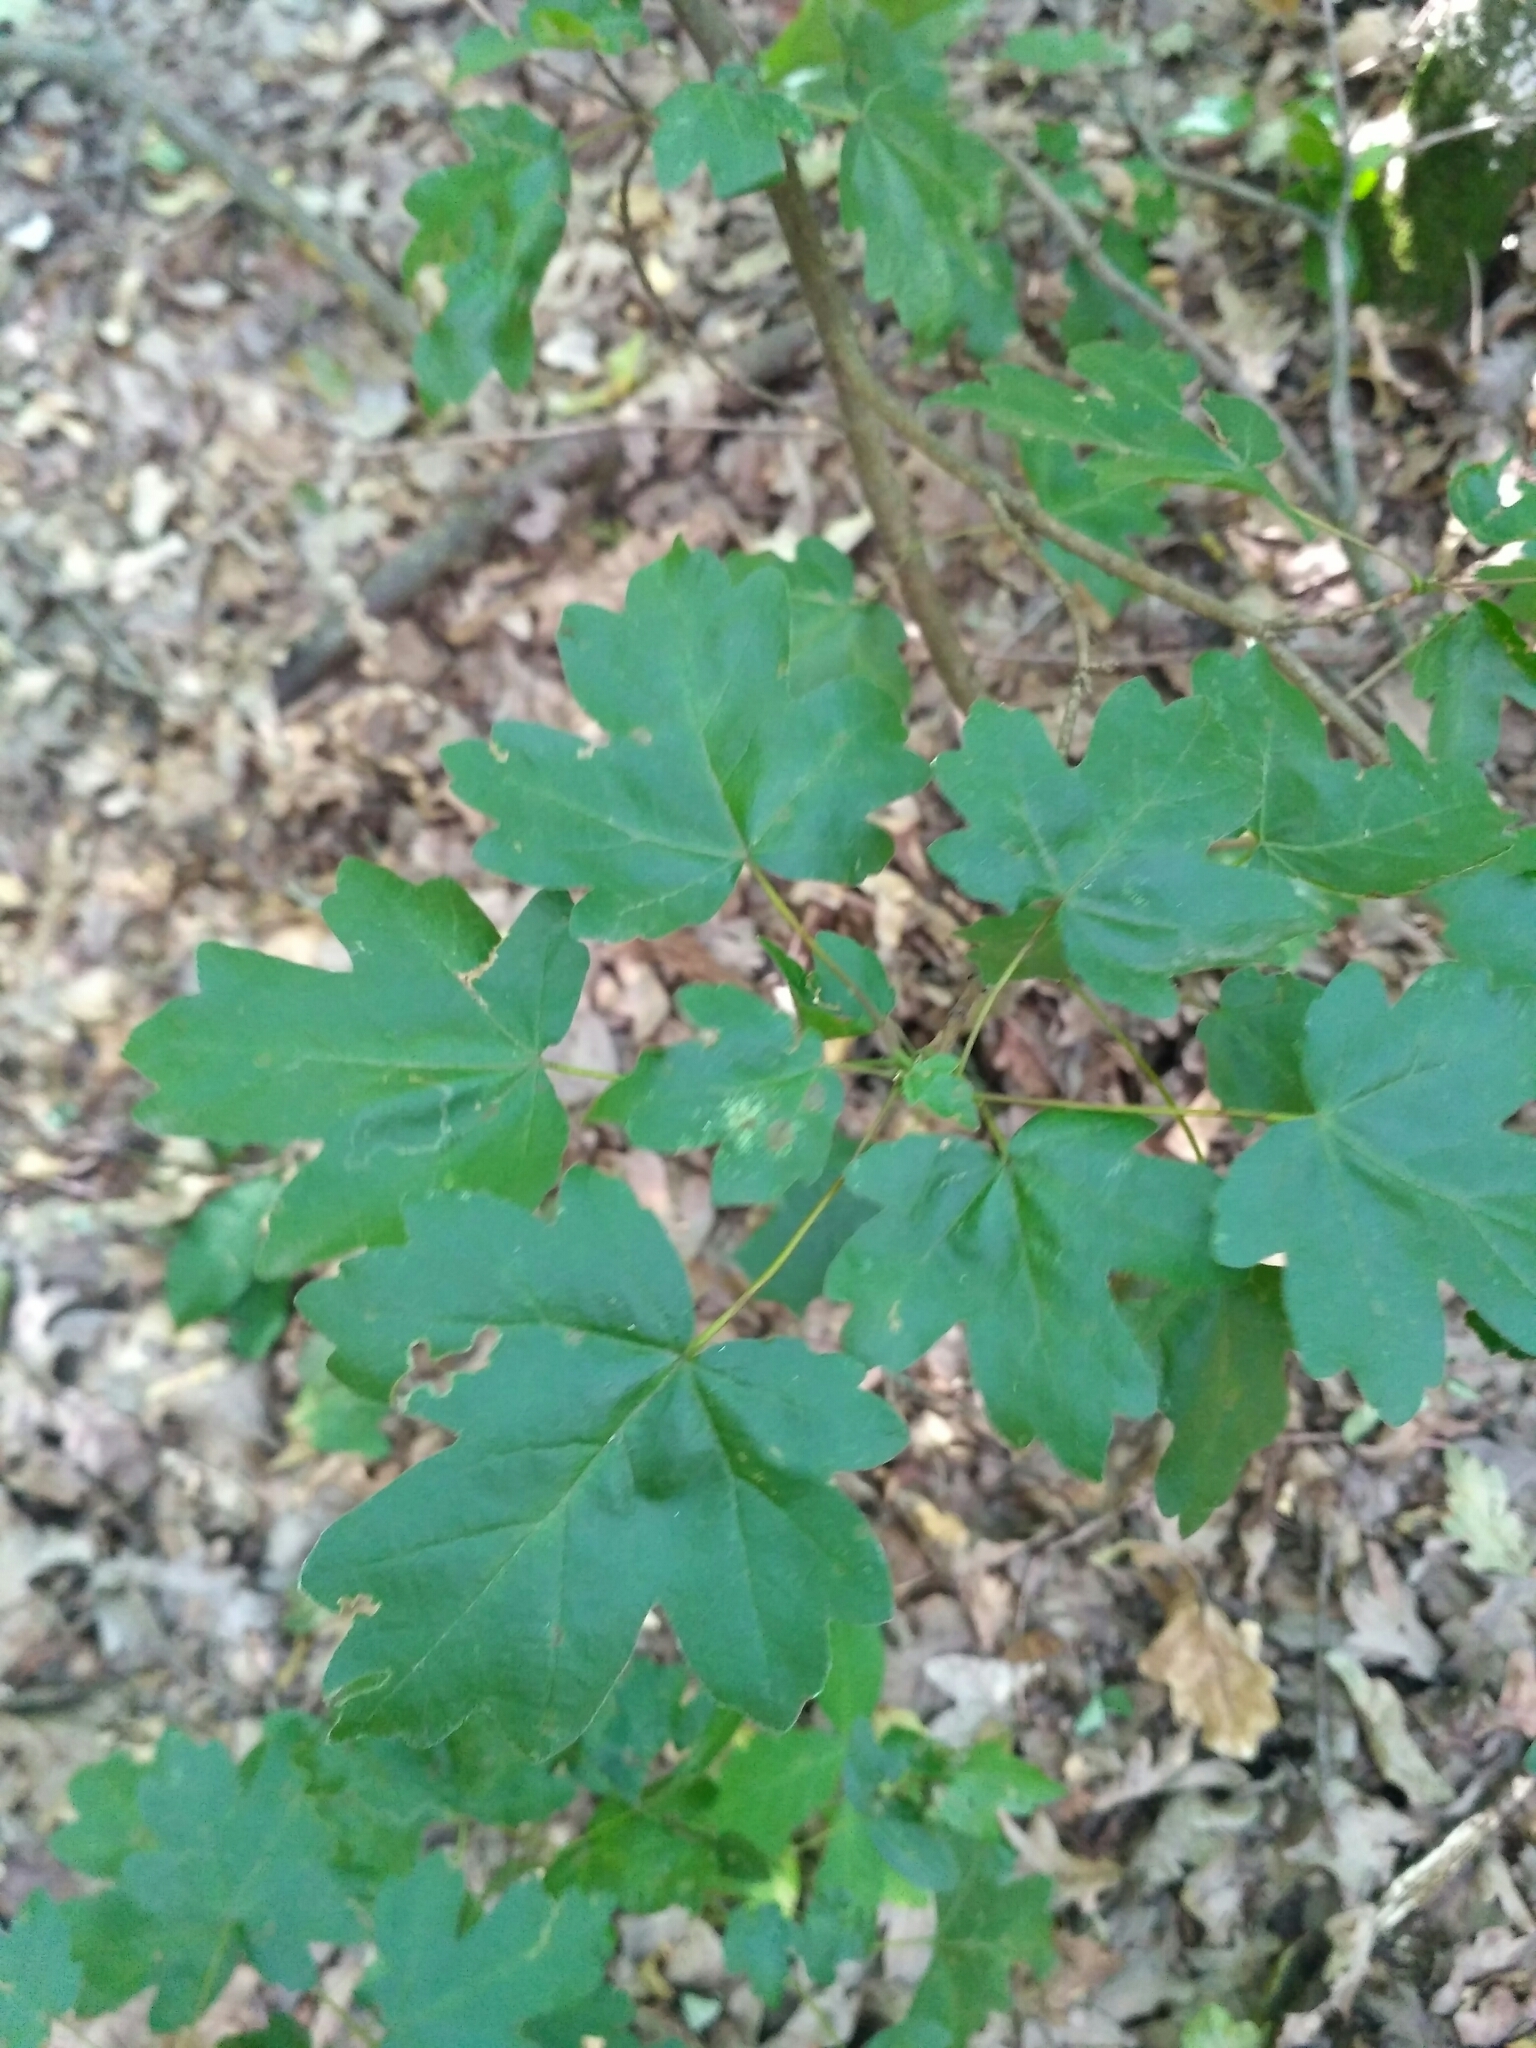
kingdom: Plantae
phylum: Tracheophyta
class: Magnoliopsida
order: Sapindales
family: Sapindaceae
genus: Acer
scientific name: Acer campestre
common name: Field maple
